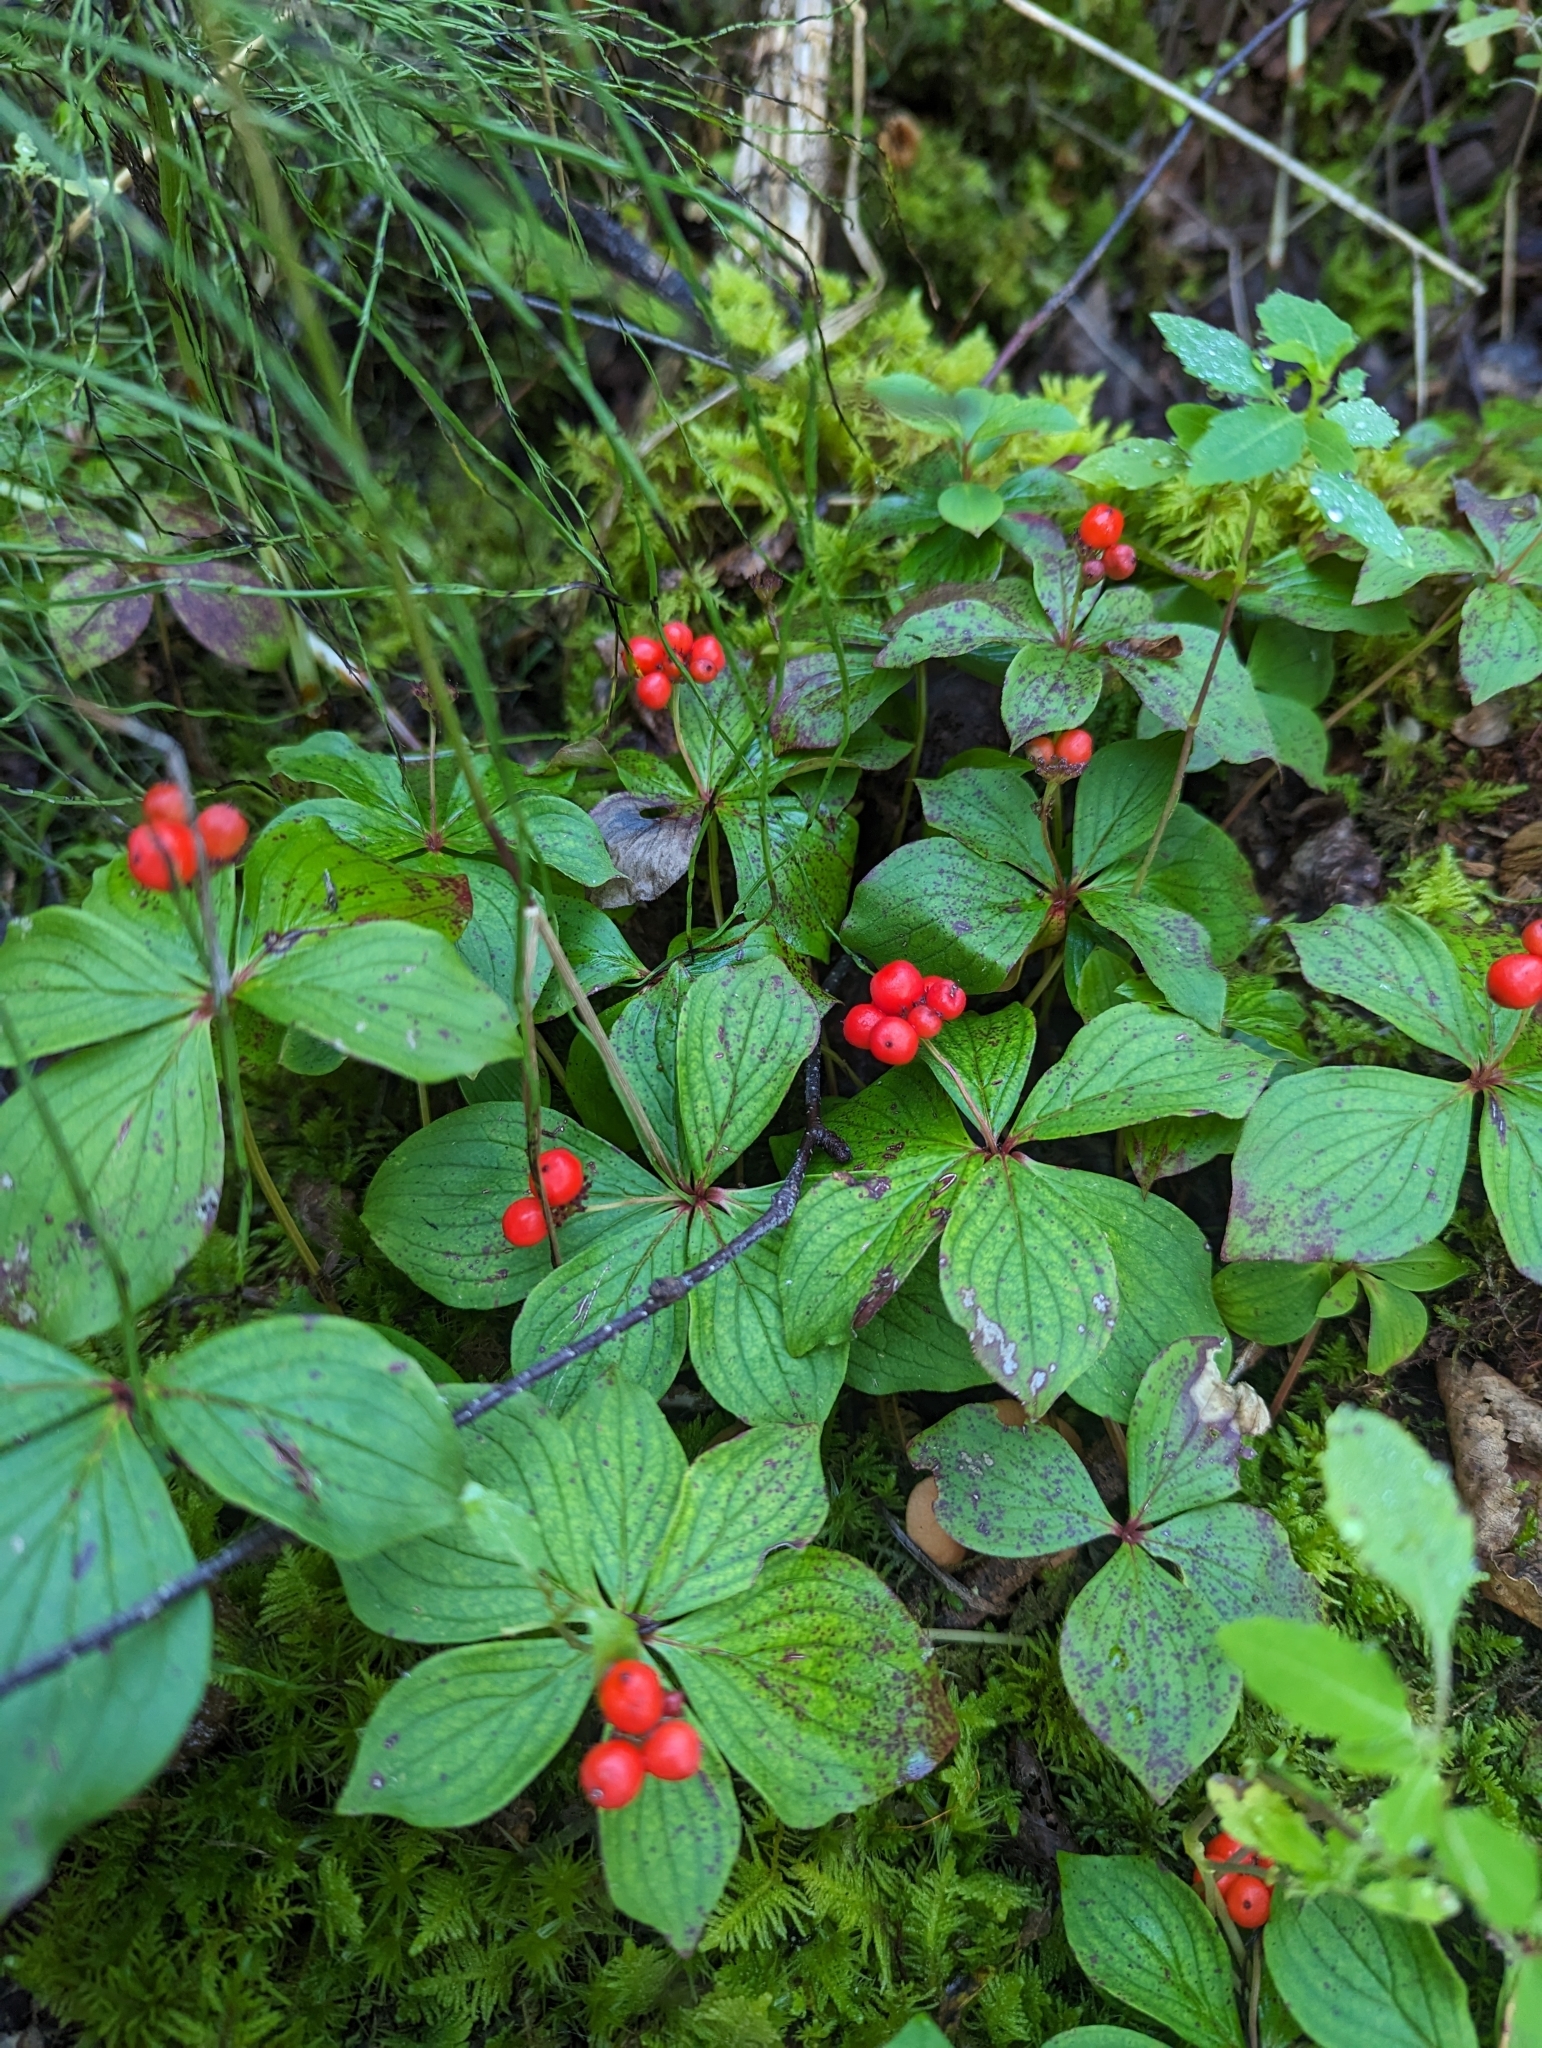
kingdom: Plantae
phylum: Tracheophyta
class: Magnoliopsida
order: Cornales
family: Cornaceae
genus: Cornus
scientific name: Cornus canadensis
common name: Creeping dogwood
